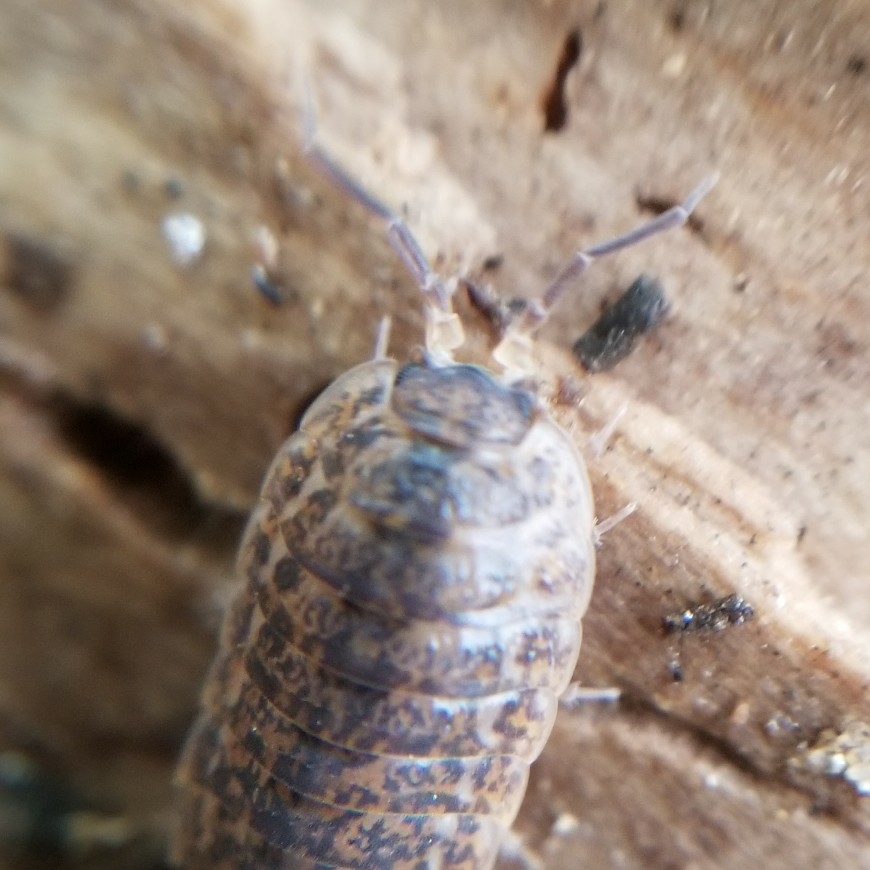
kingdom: Animalia
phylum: Arthropoda
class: Malacostraca
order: Isopoda
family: Trachelipodidae
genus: Trachelipus
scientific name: Trachelipus rathkii
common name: Isopod
